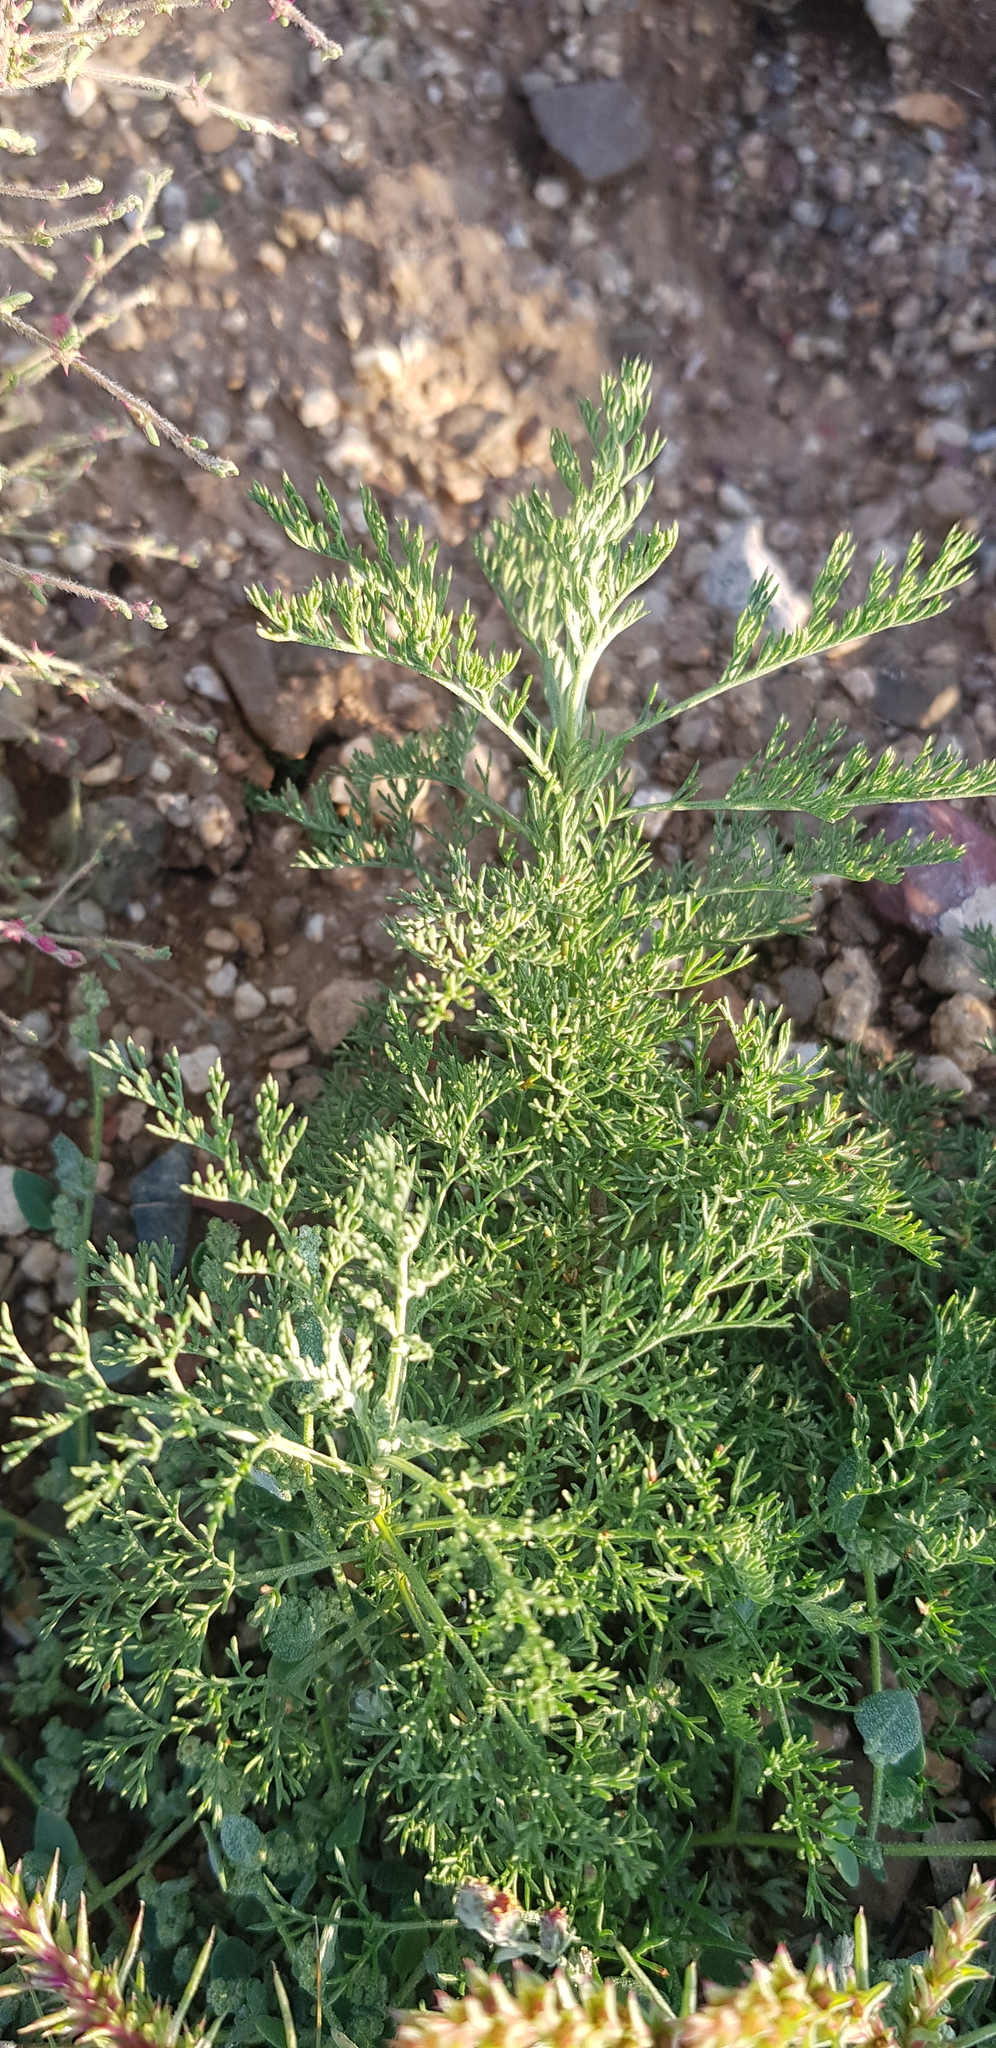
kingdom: Plantae
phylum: Tracheophyta
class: Magnoliopsida
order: Asterales
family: Asteraceae
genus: Artemisia
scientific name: Artemisia adamsii
